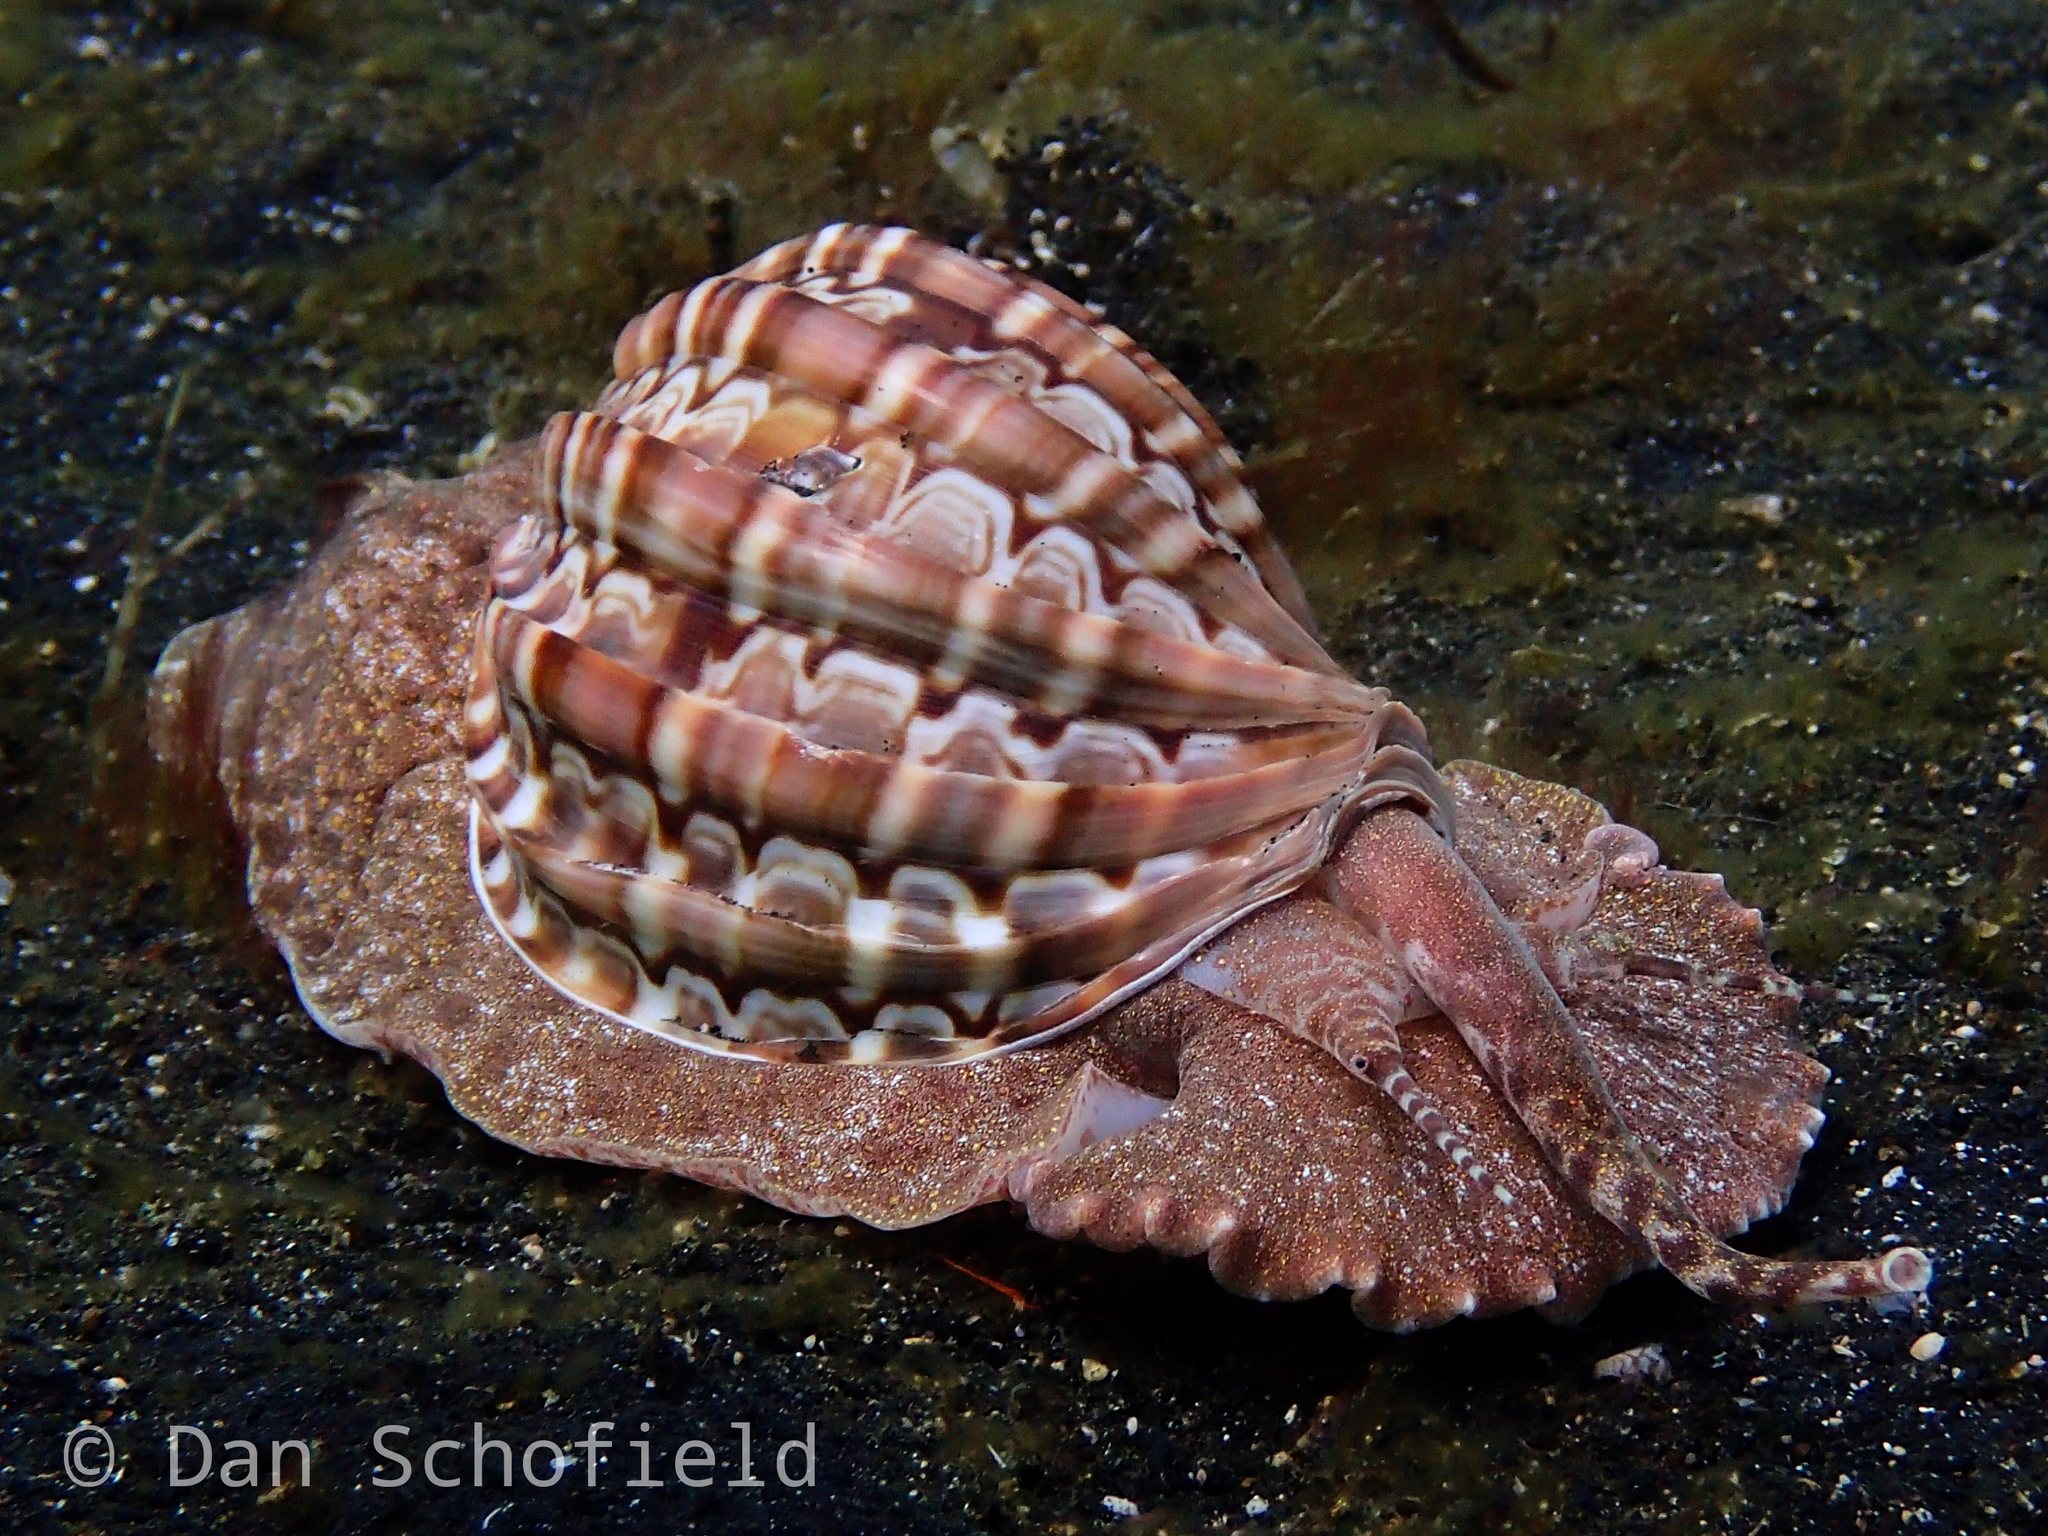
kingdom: Animalia
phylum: Mollusca
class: Gastropoda
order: Neogastropoda
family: Harpidae
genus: Harpa
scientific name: Harpa major
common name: Large harp
